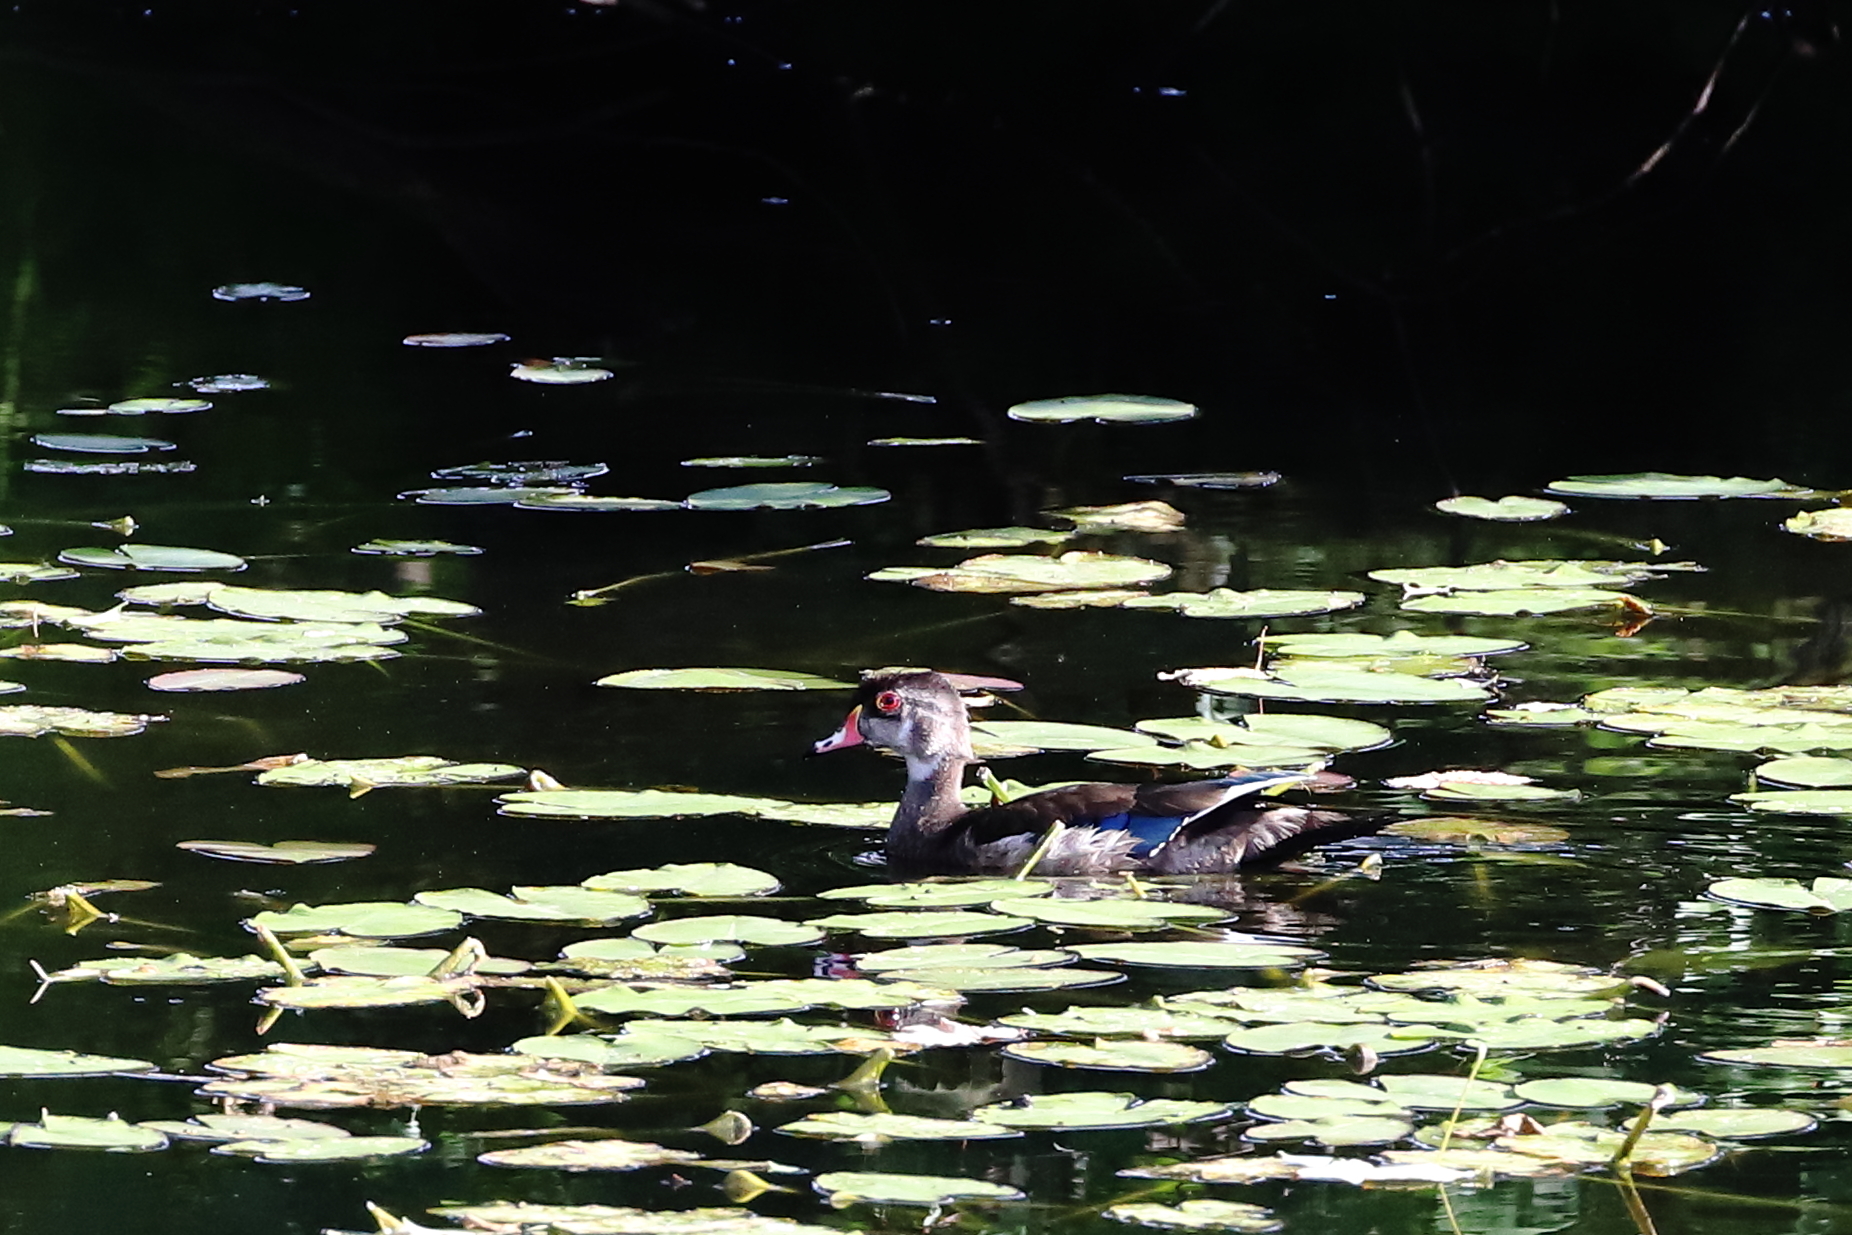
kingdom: Animalia
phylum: Chordata
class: Aves
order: Anseriformes
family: Anatidae
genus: Aix
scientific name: Aix sponsa
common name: Wood duck
